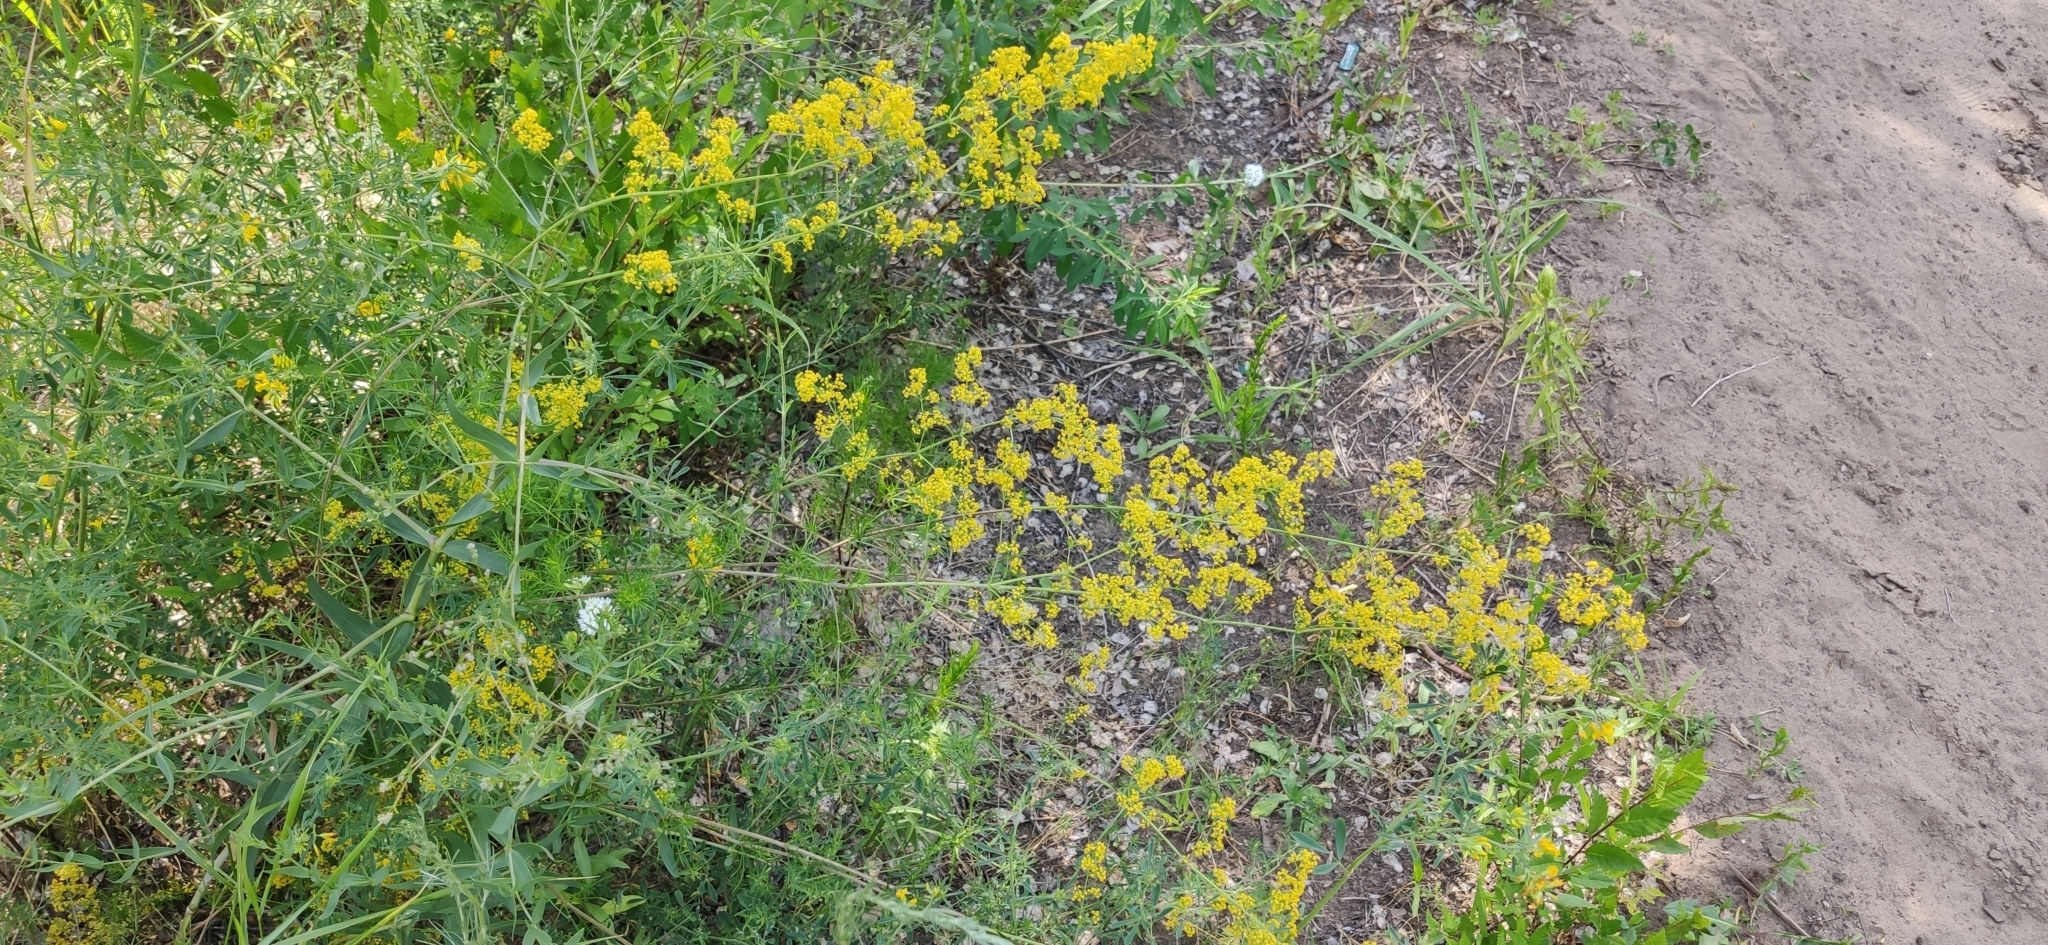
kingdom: Plantae
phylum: Tracheophyta
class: Magnoliopsida
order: Gentianales
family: Rubiaceae
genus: Galium
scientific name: Galium verum
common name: Lady's bedstraw
